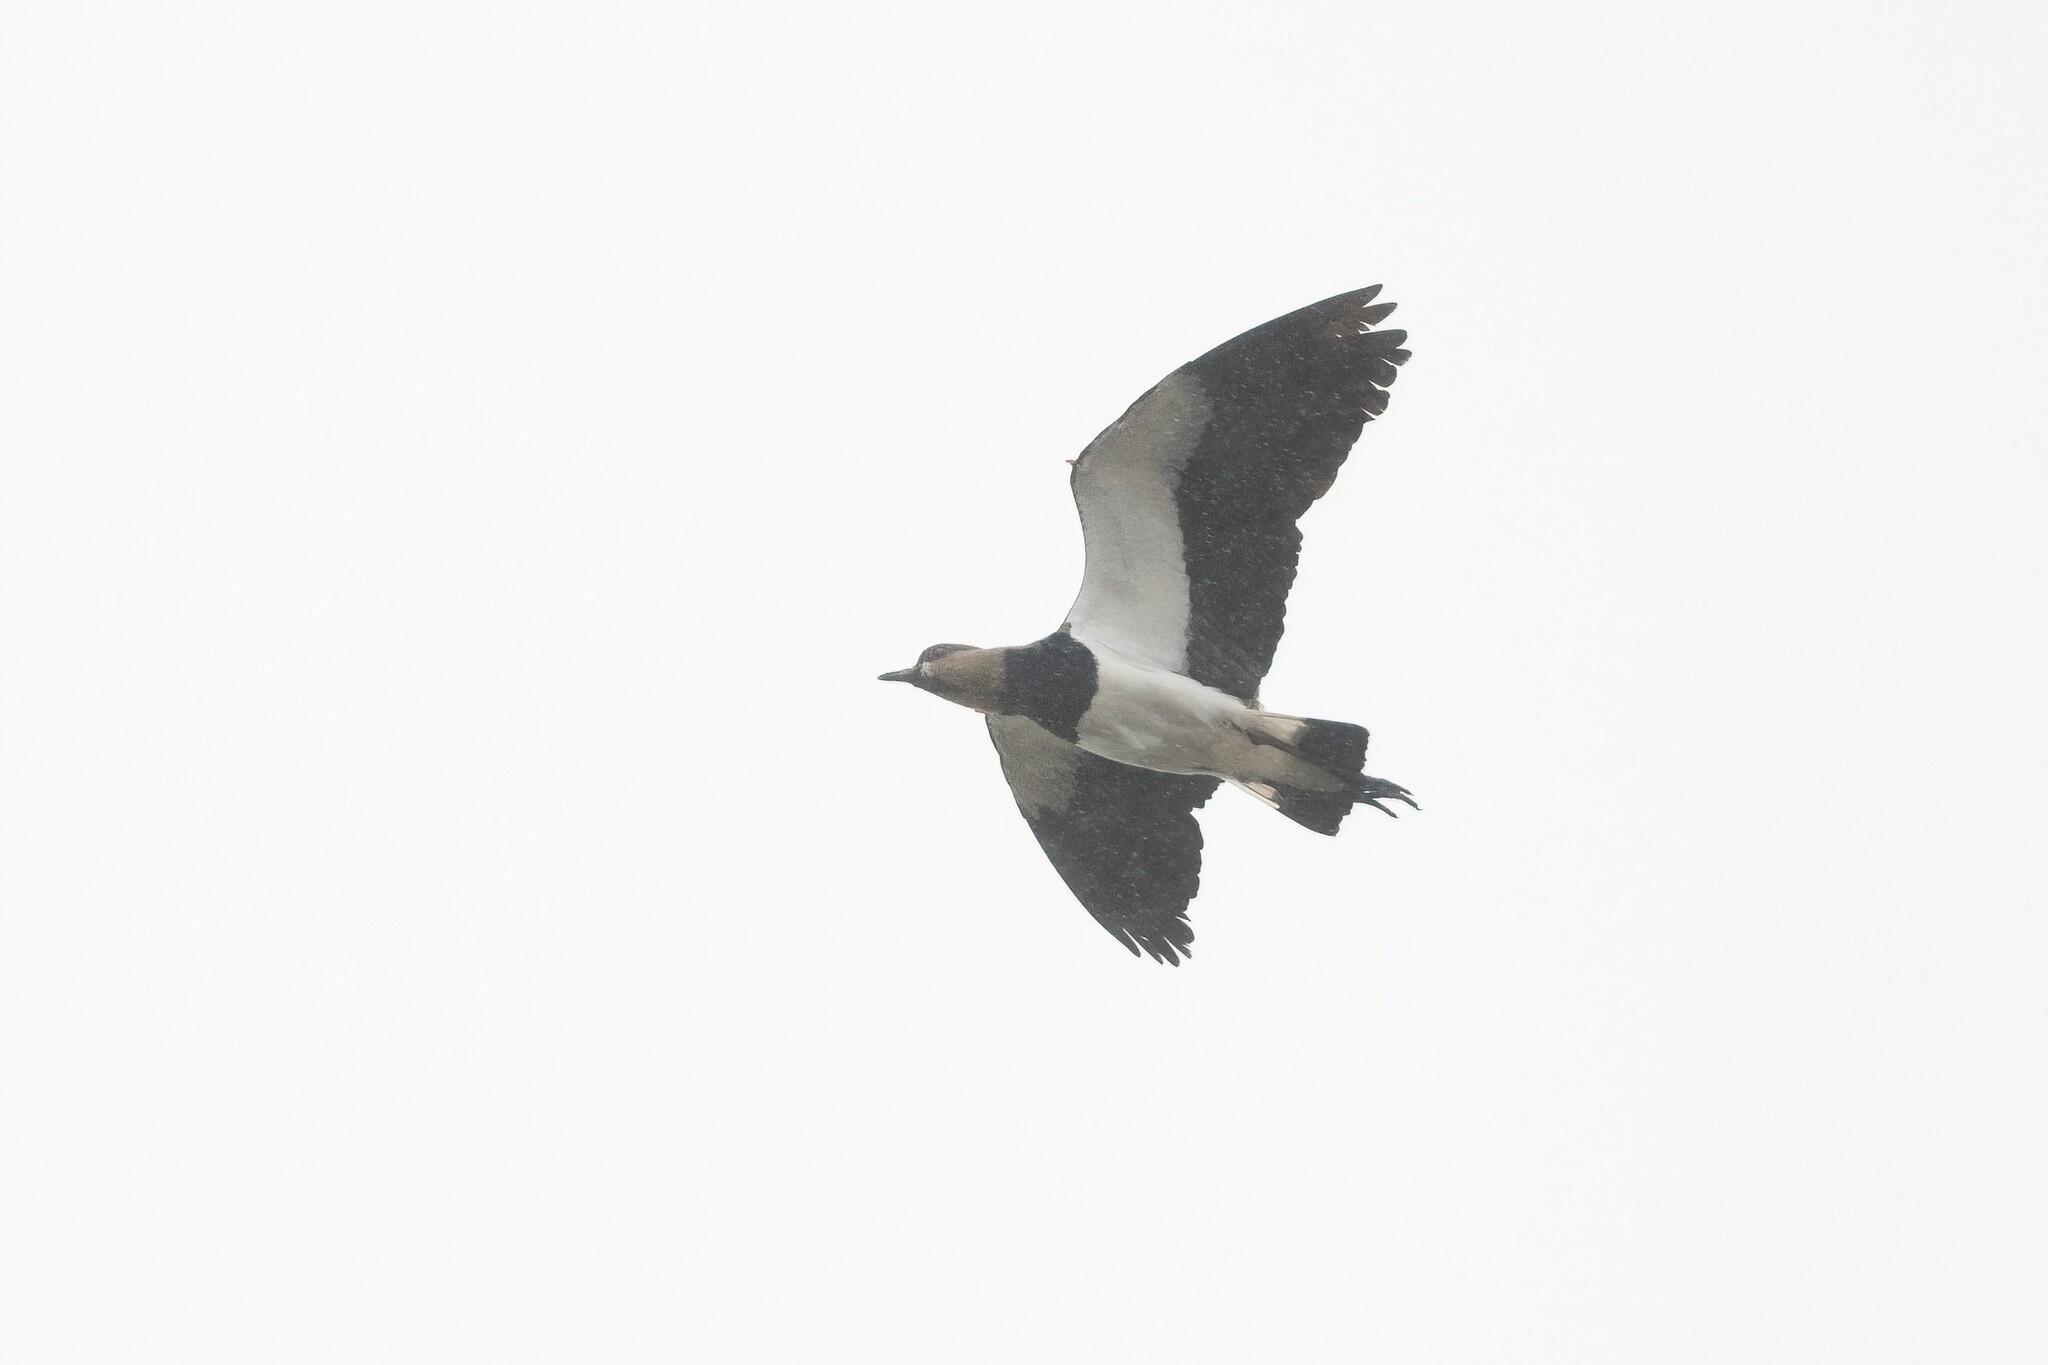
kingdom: Animalia
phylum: Chordata
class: Aves
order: Charadriiformes
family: Charadriidae
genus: Vanellus
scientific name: Vanellus chilensis
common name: Southern lapwing
